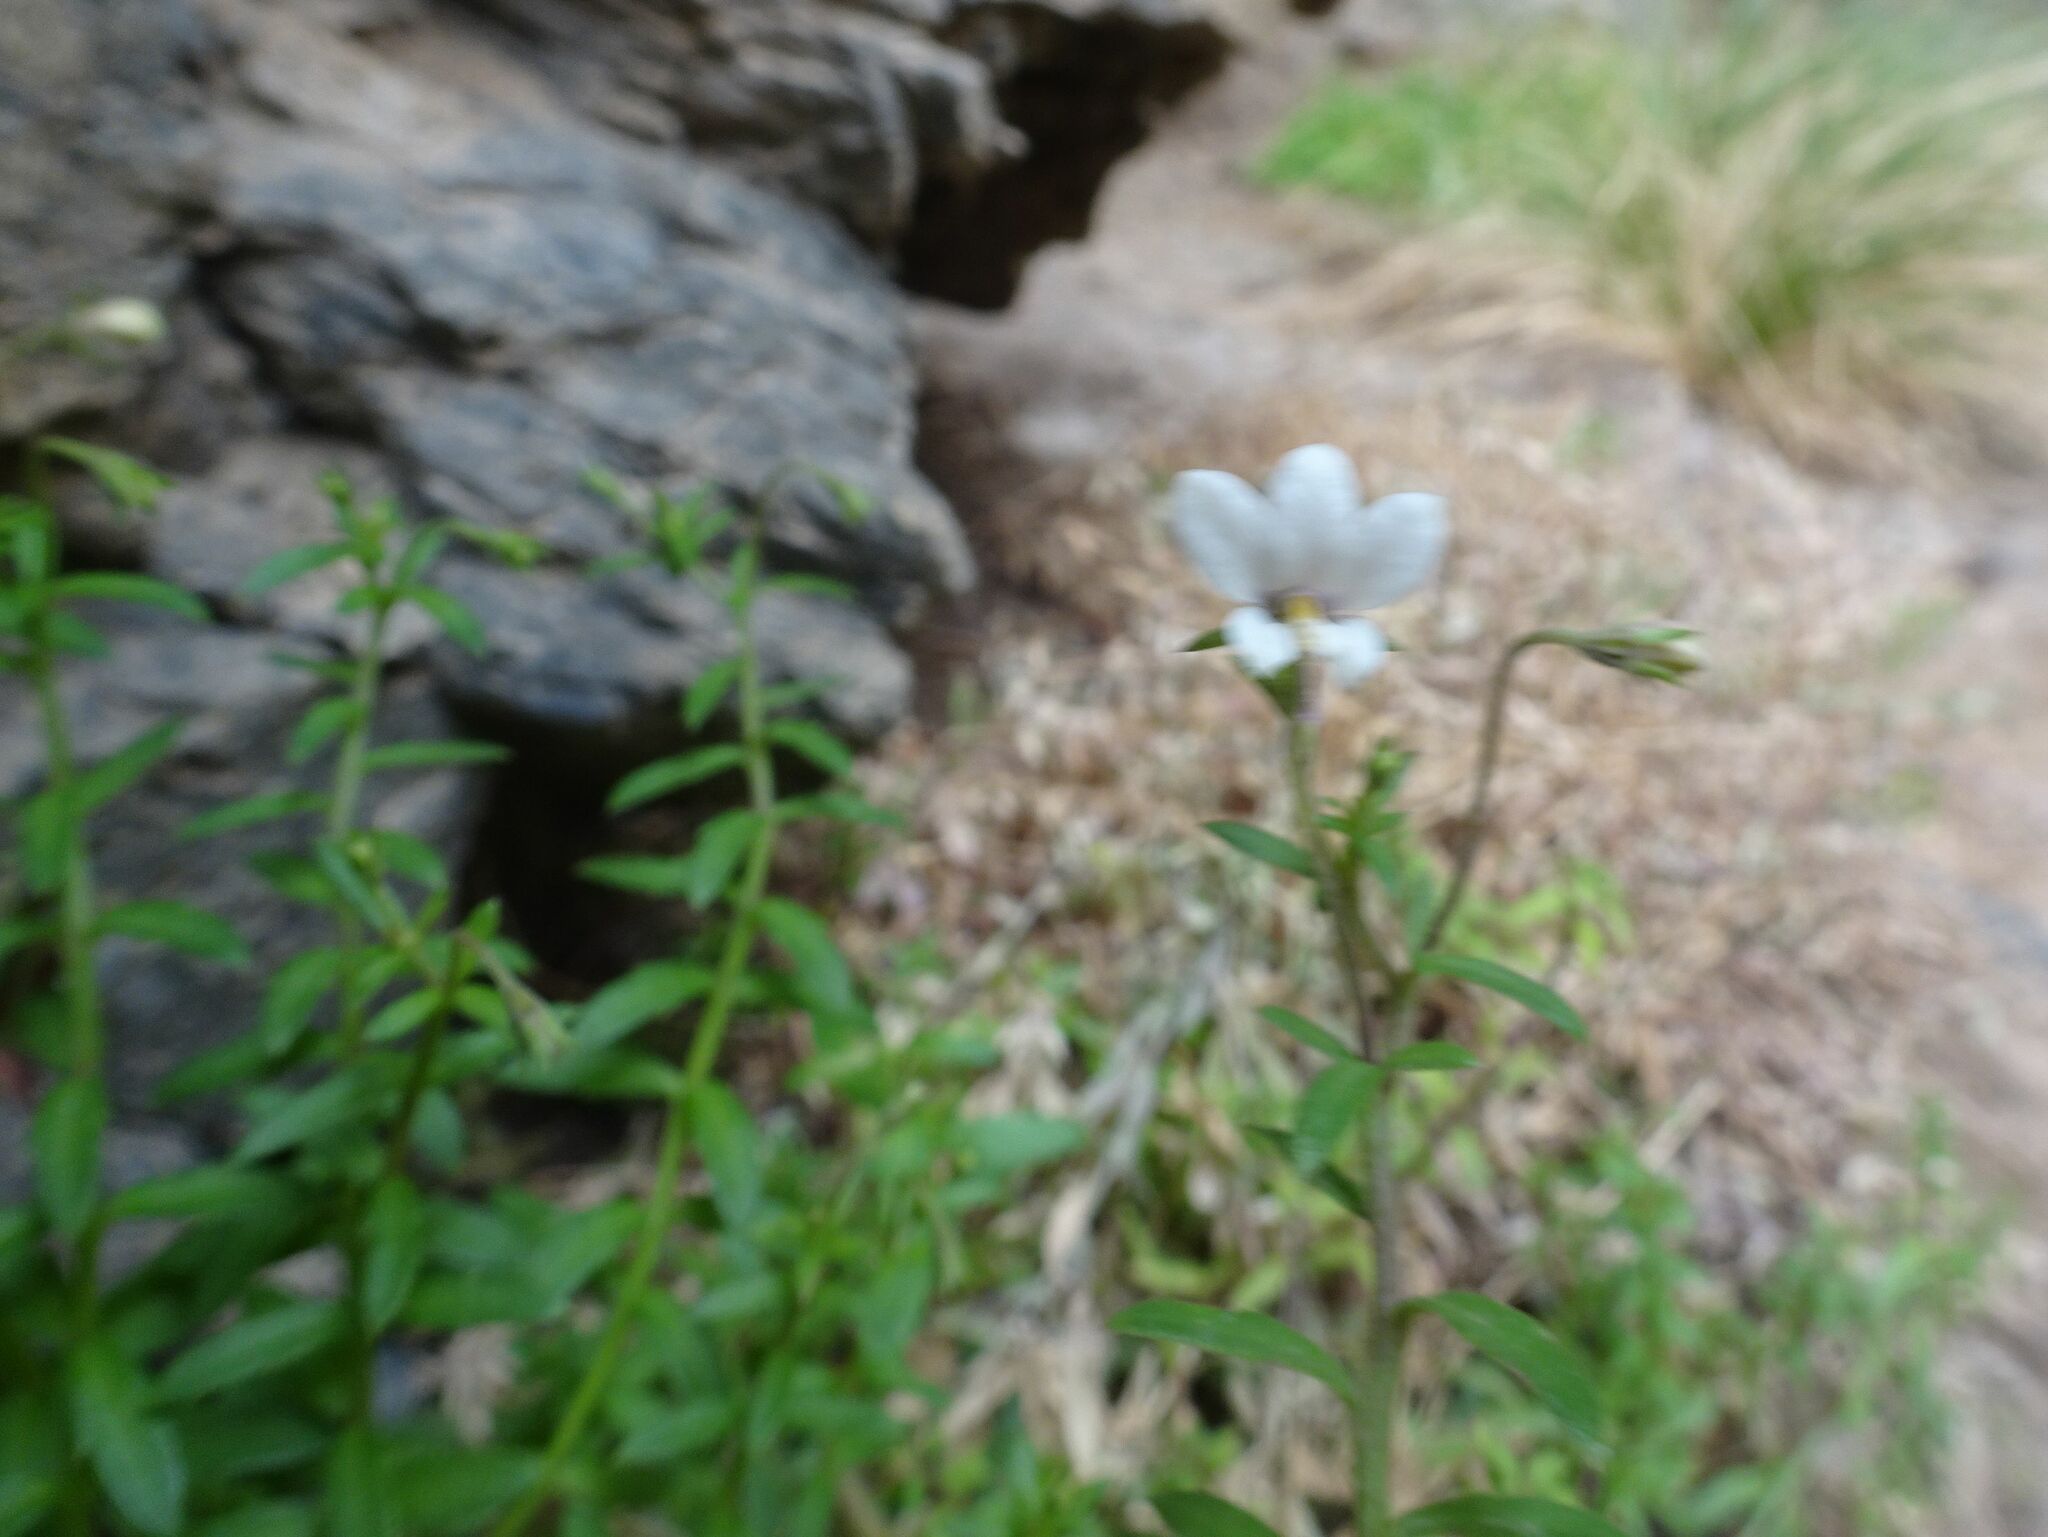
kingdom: Plantae
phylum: Tracheophyta
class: Magnoliopsida
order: Asterales
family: Campanulaceae
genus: Monopsis
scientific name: Monopsis alba
